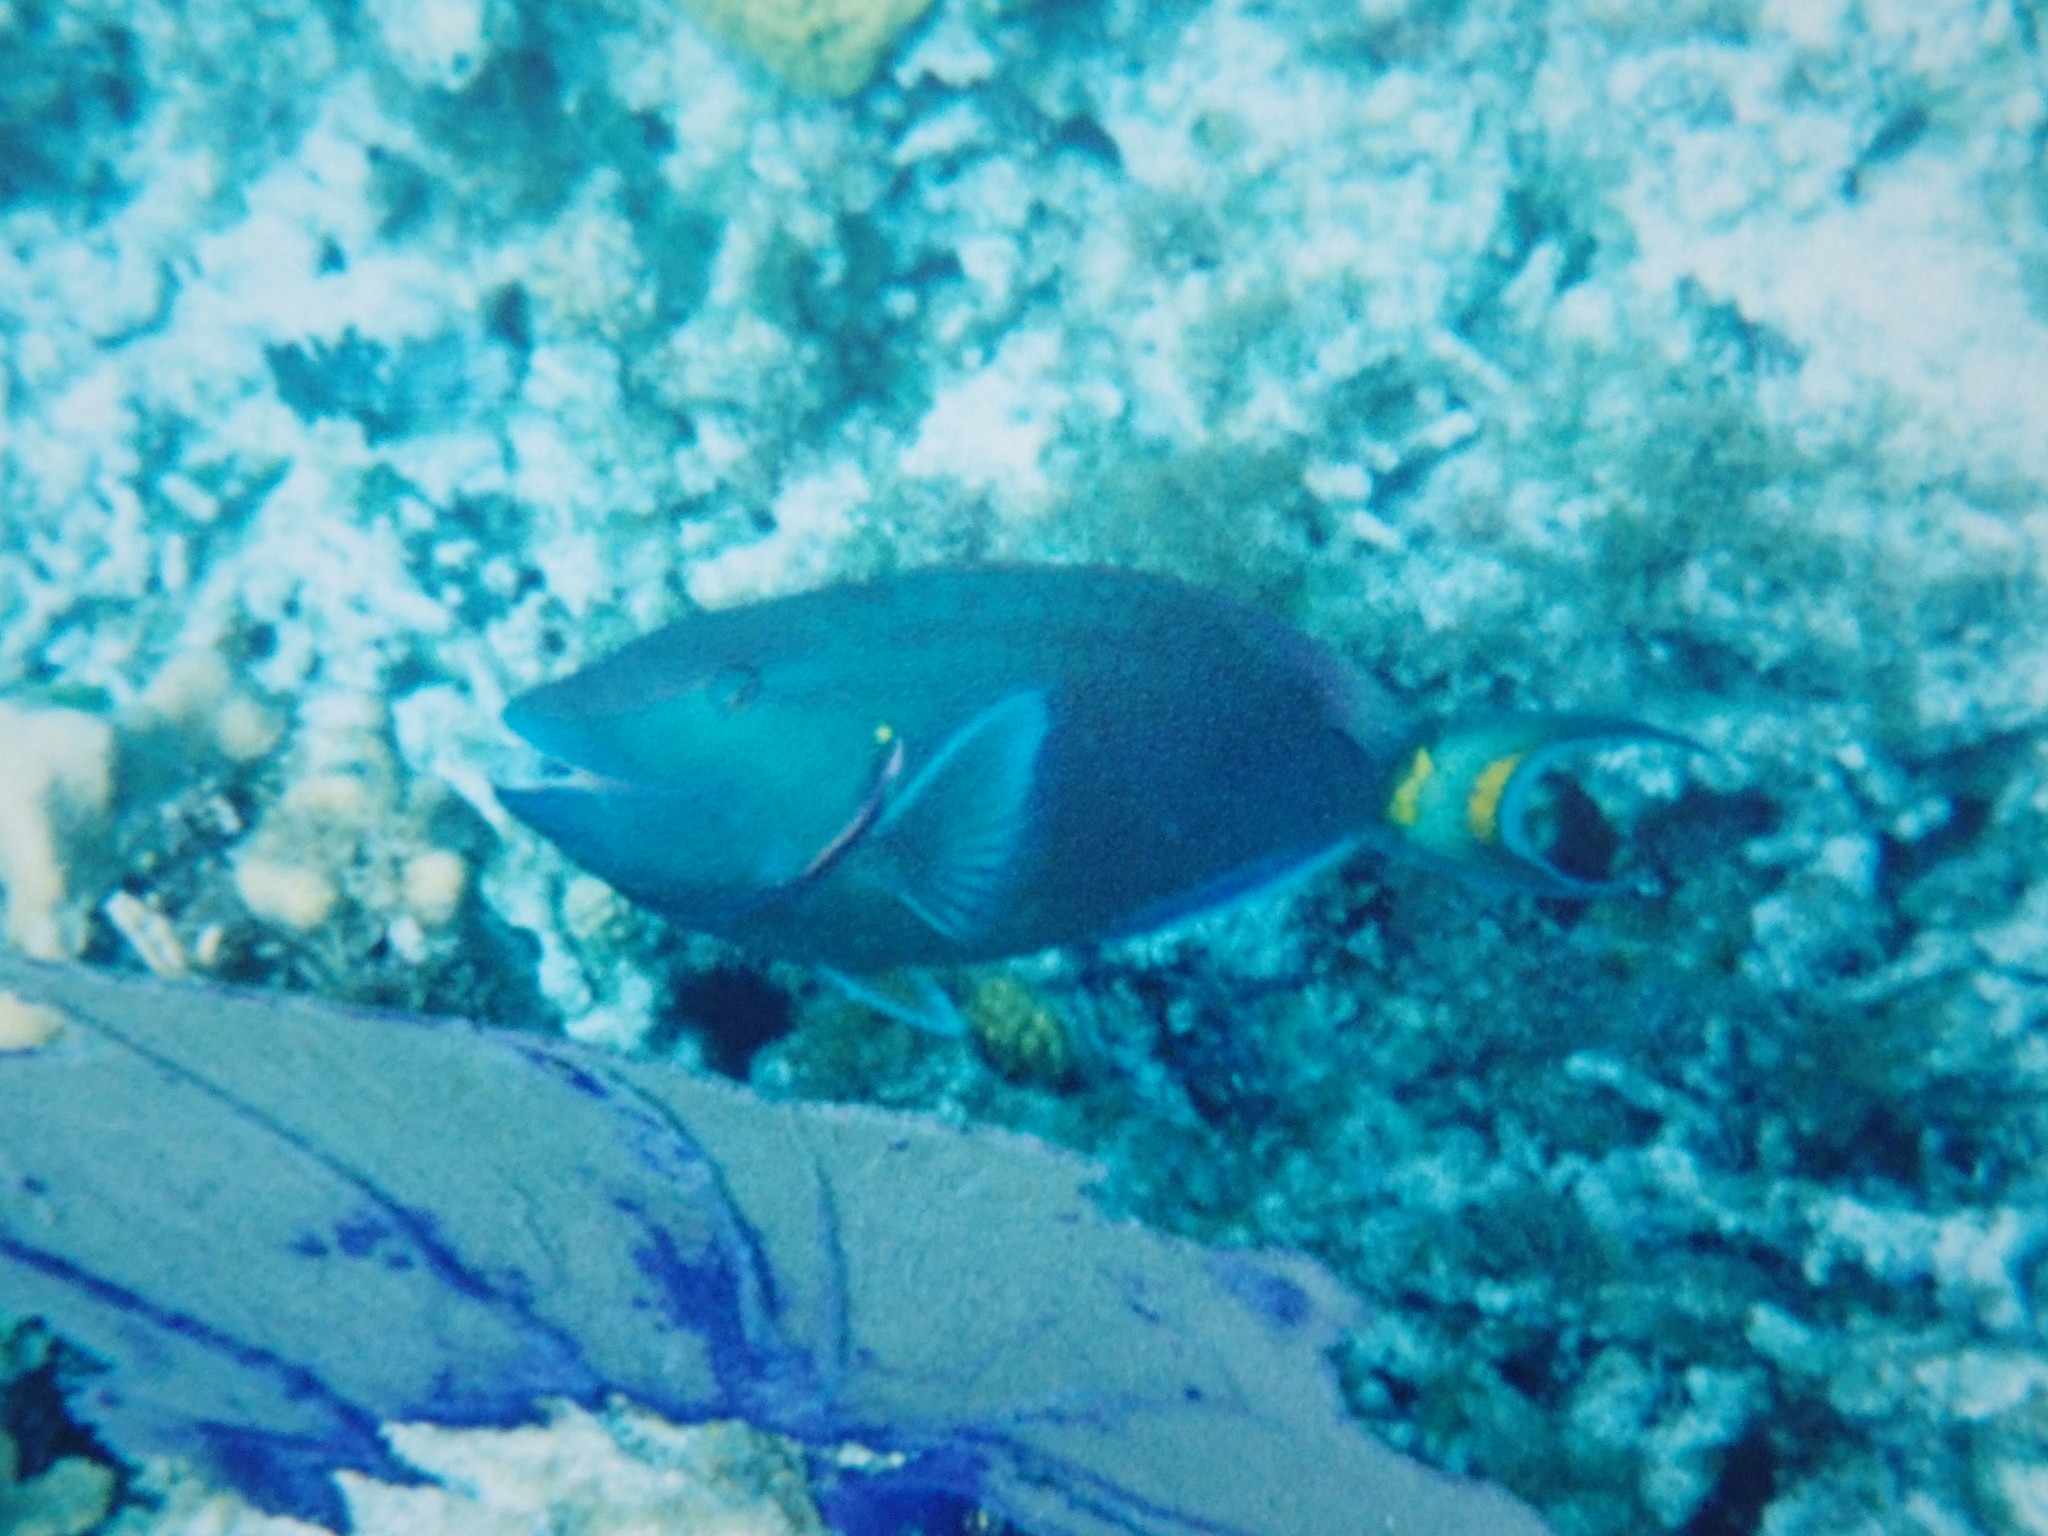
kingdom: Animalia
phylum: Chordata
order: Perciformes
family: Scaridae
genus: Sparisoma
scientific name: Sparisoma viride
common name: Stoplight parrotfish
